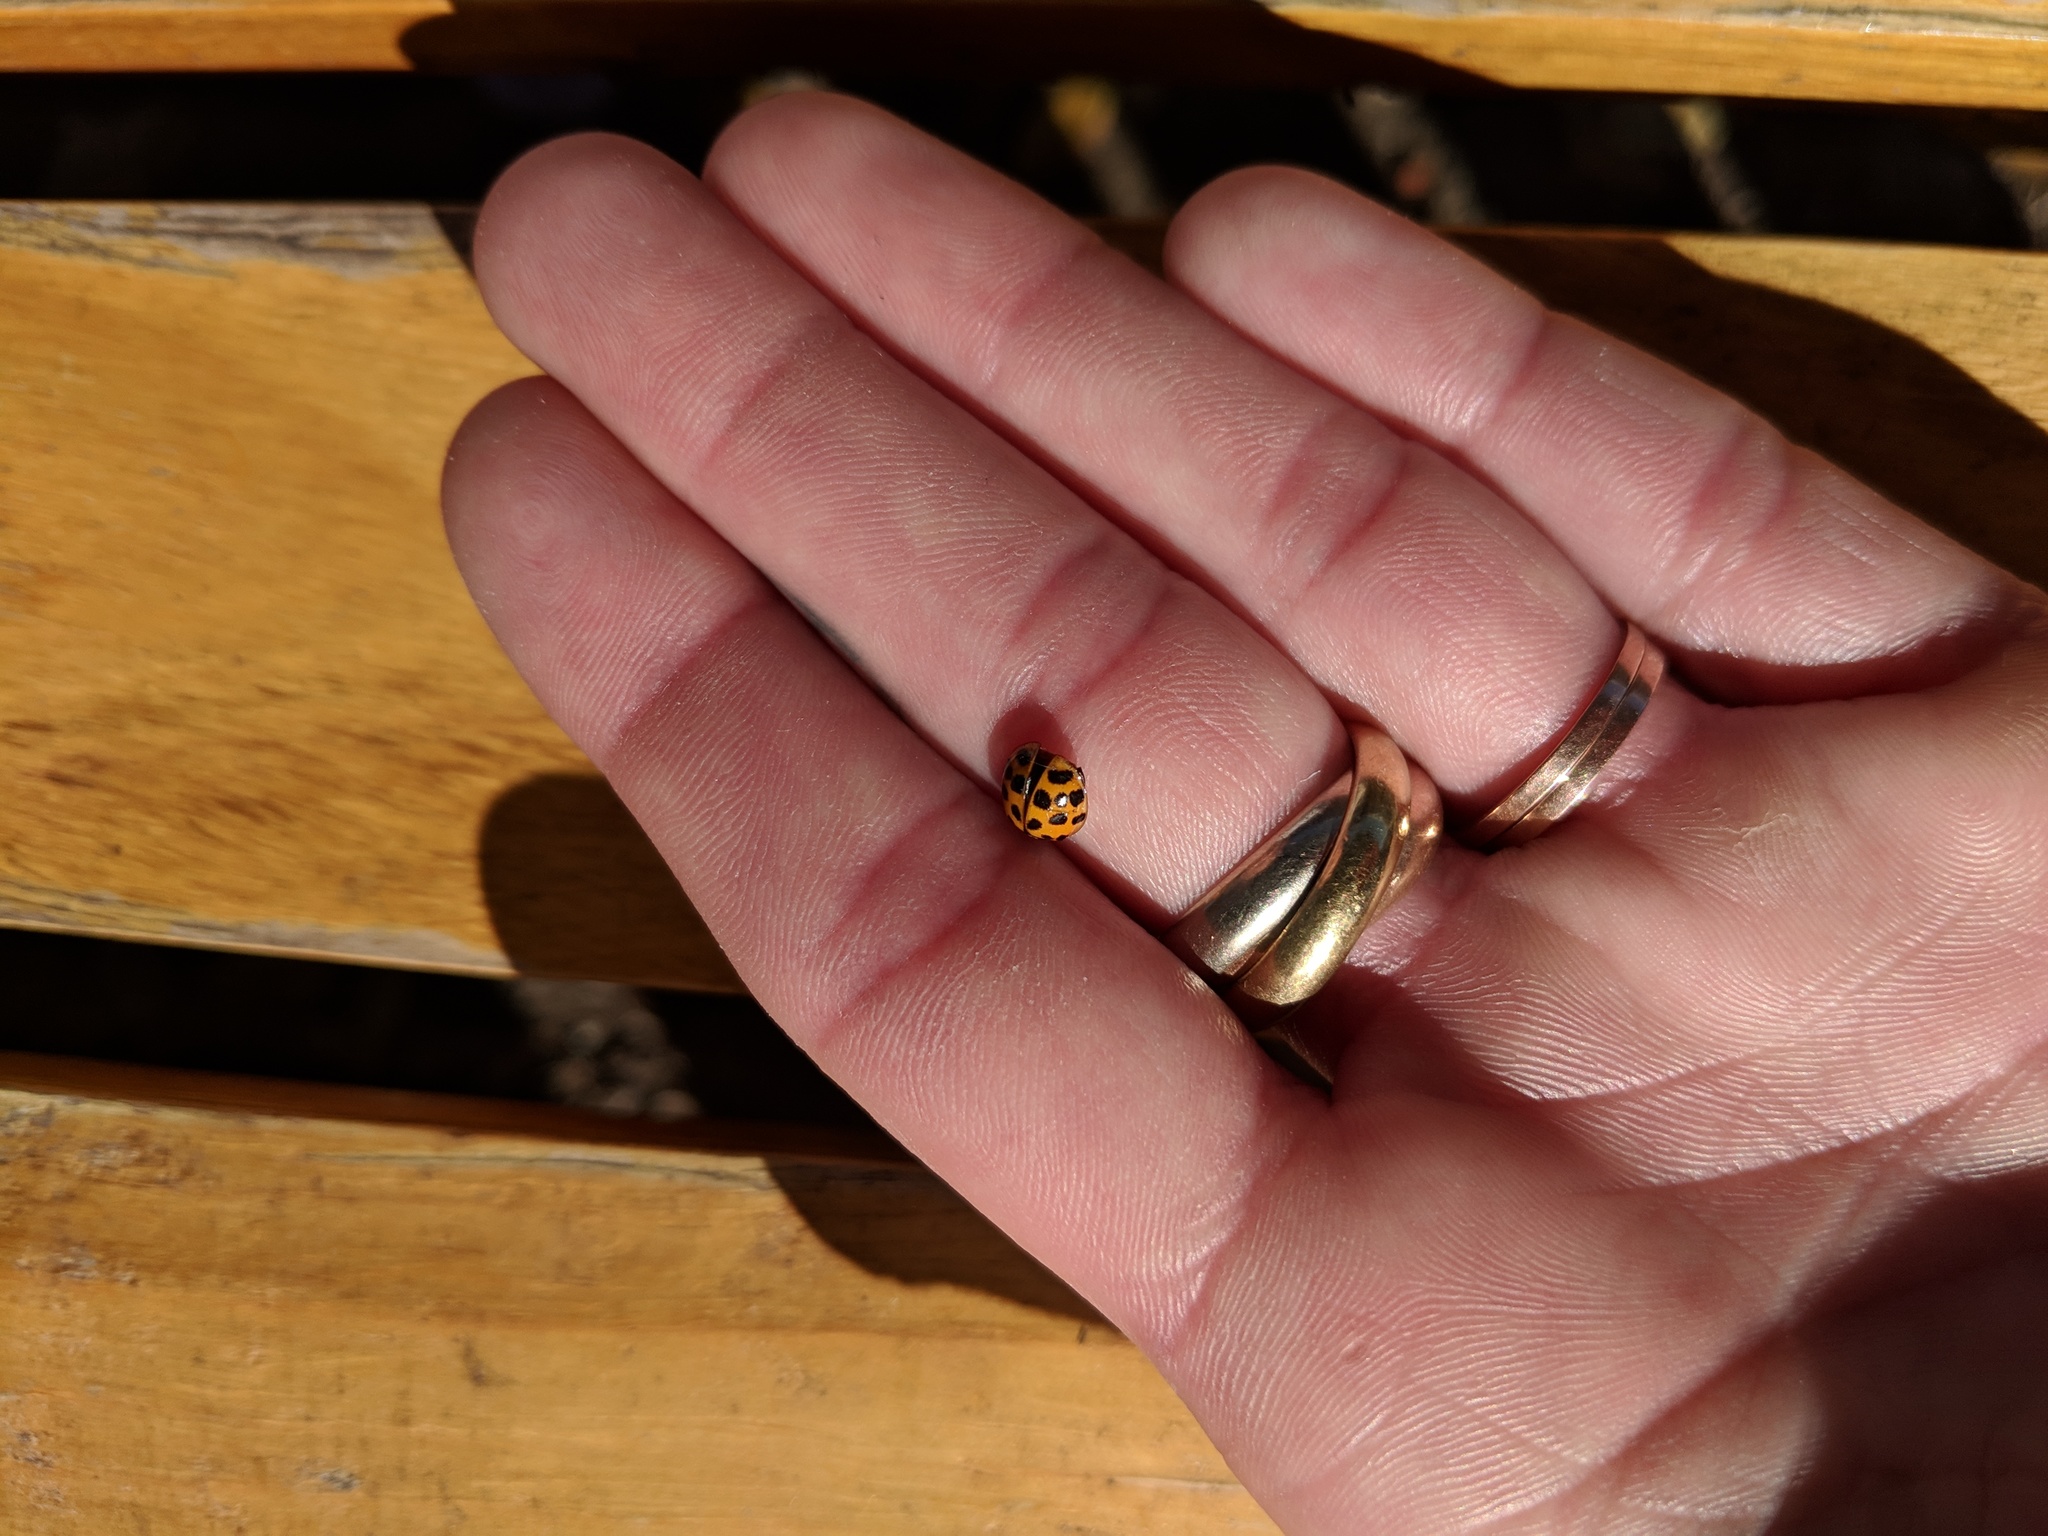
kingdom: Animalia
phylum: Arthropoda
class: Insecta
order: Coleoptera
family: Coccinellidae
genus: Harmonia
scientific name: Harmonia axyridis
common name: Harlequin ladybird
